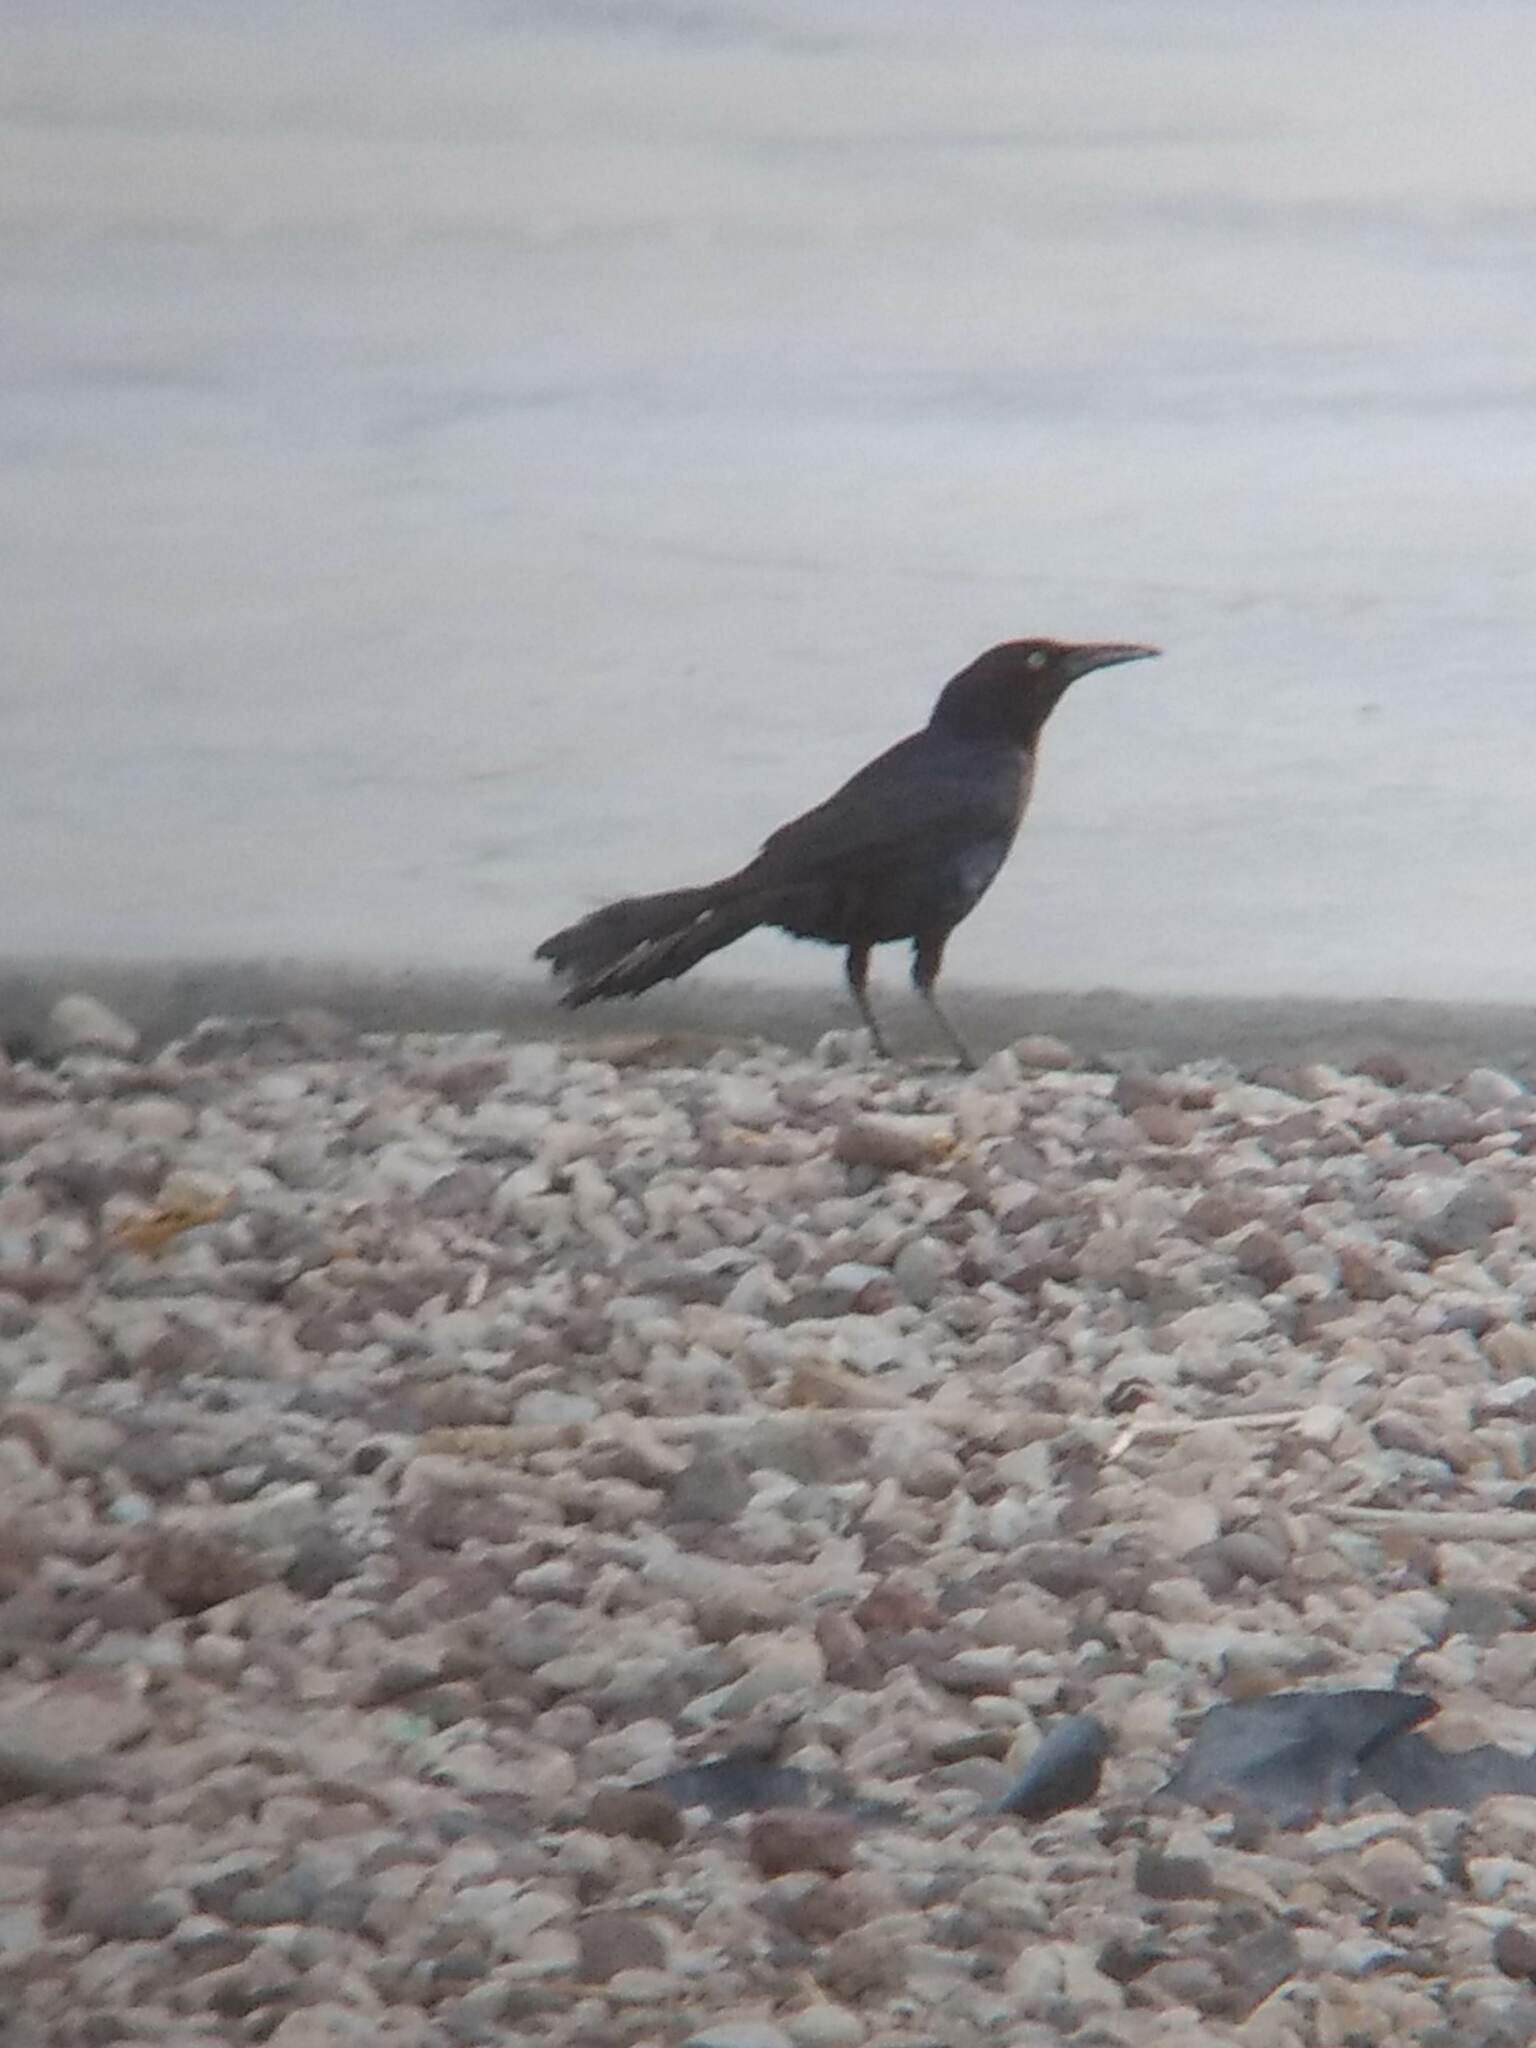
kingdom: Animalia
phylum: Chordata
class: Aves
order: Passeriformes
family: Icteridae
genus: Quiscalus
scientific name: Quiscalus mexicanus
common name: Great-tailed grackle
